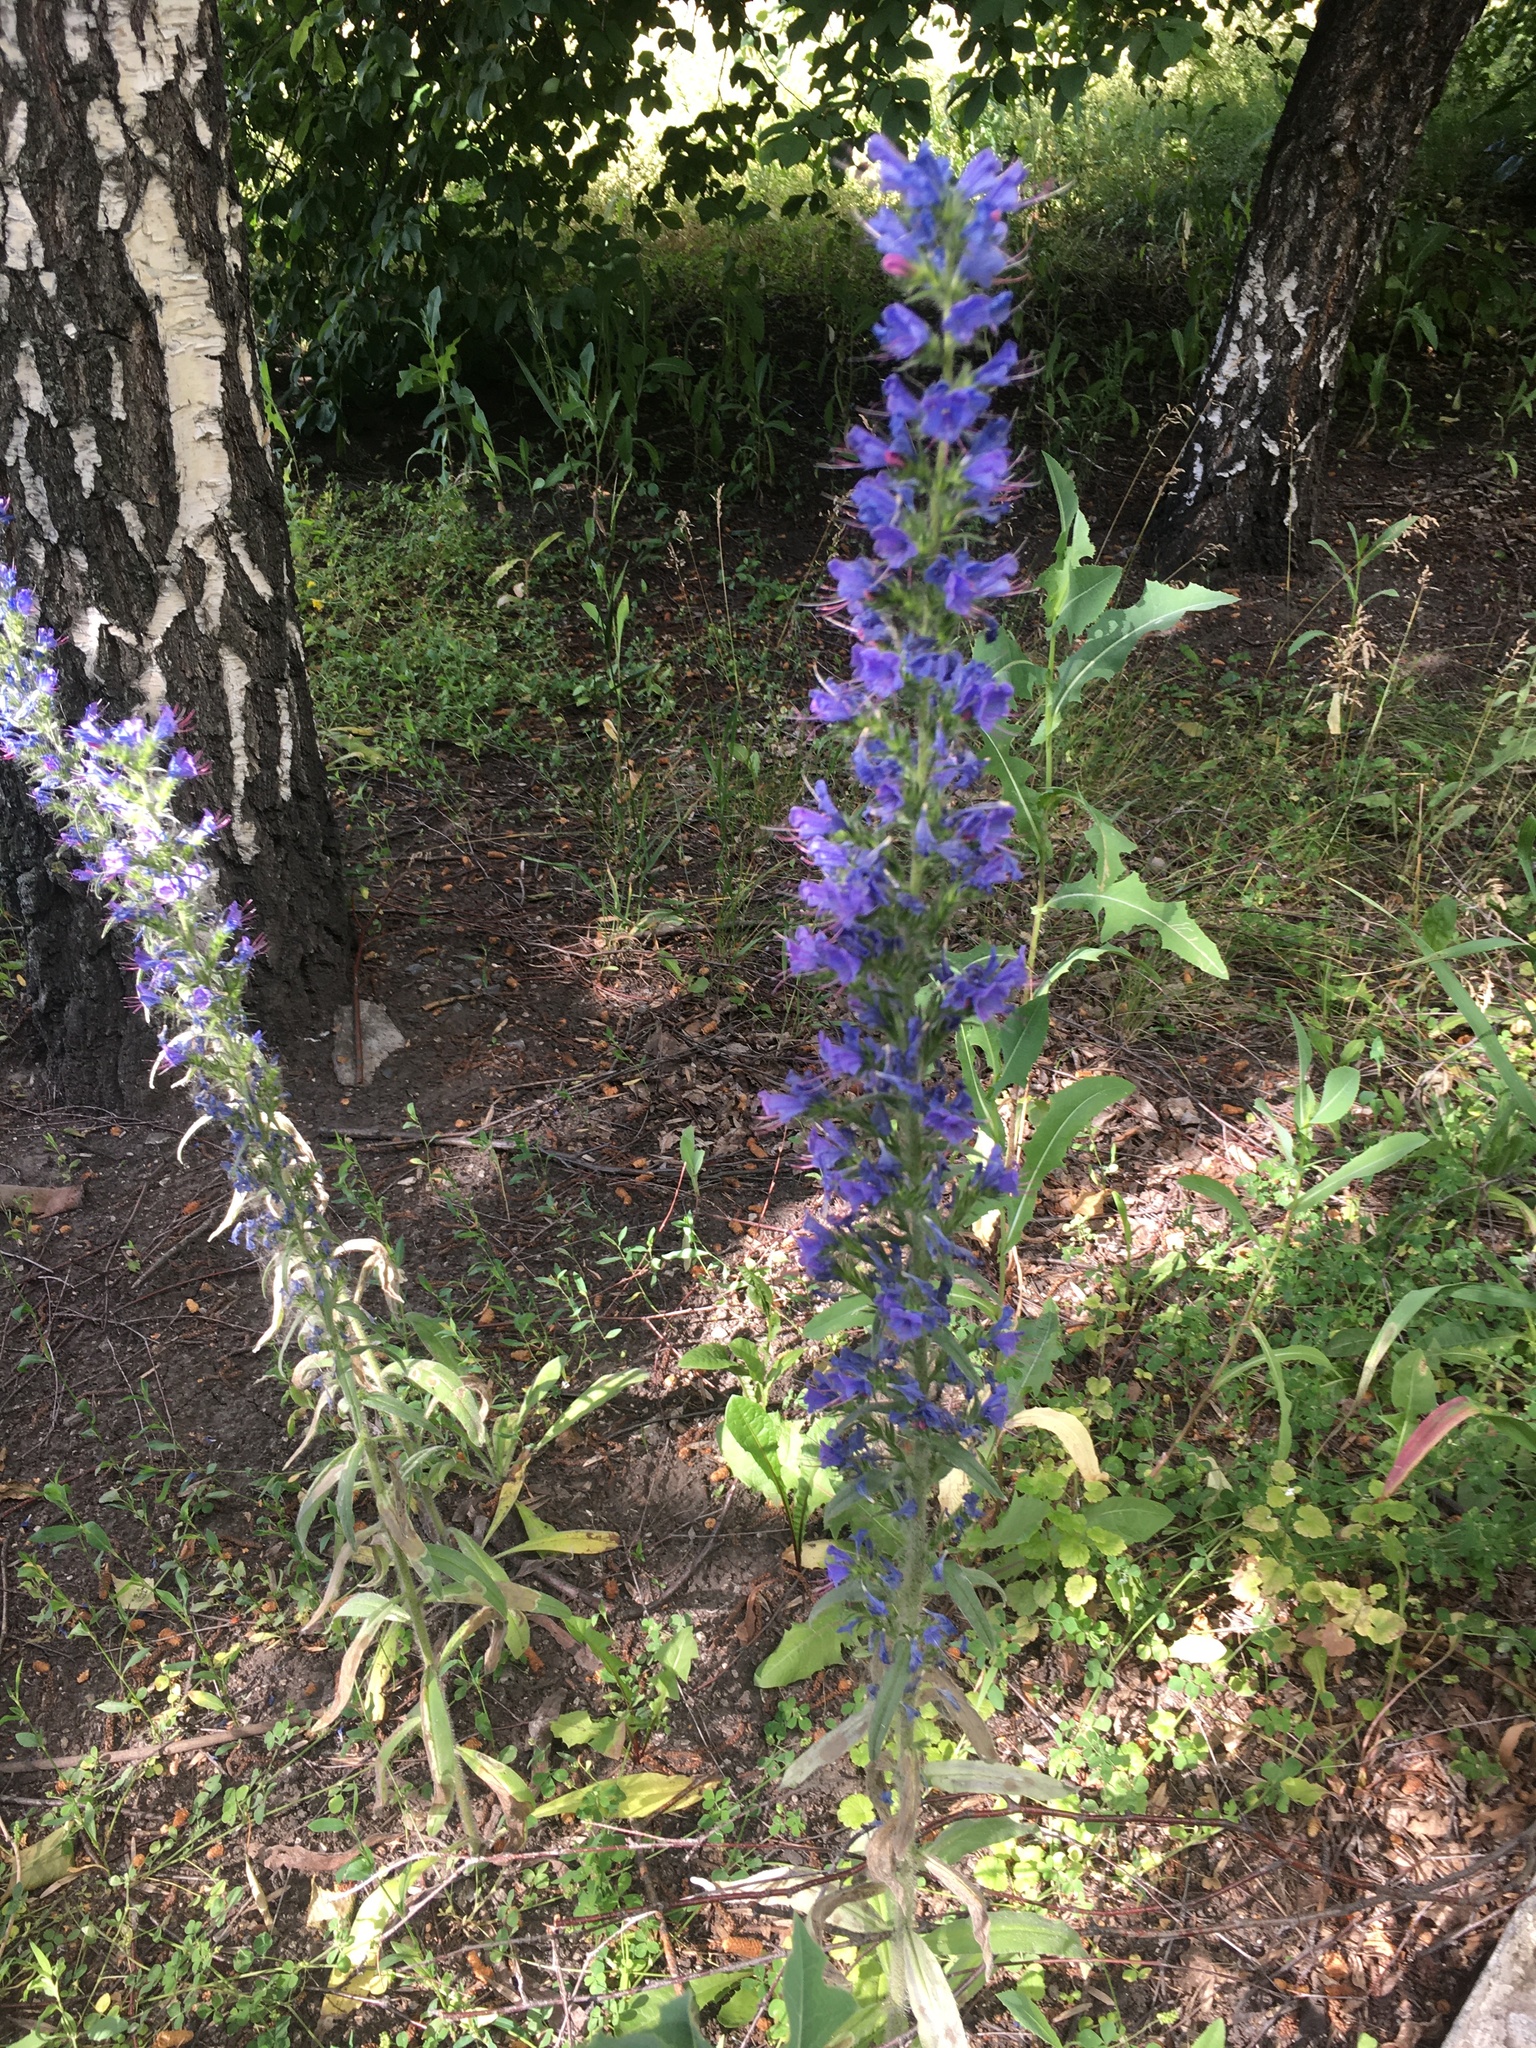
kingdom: Plantae
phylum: Tracheophyta
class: Magnoliopsida
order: Boraginales
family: Boraginaceae
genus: Echium
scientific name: Echium vulgare
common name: Common viper's bugloss
